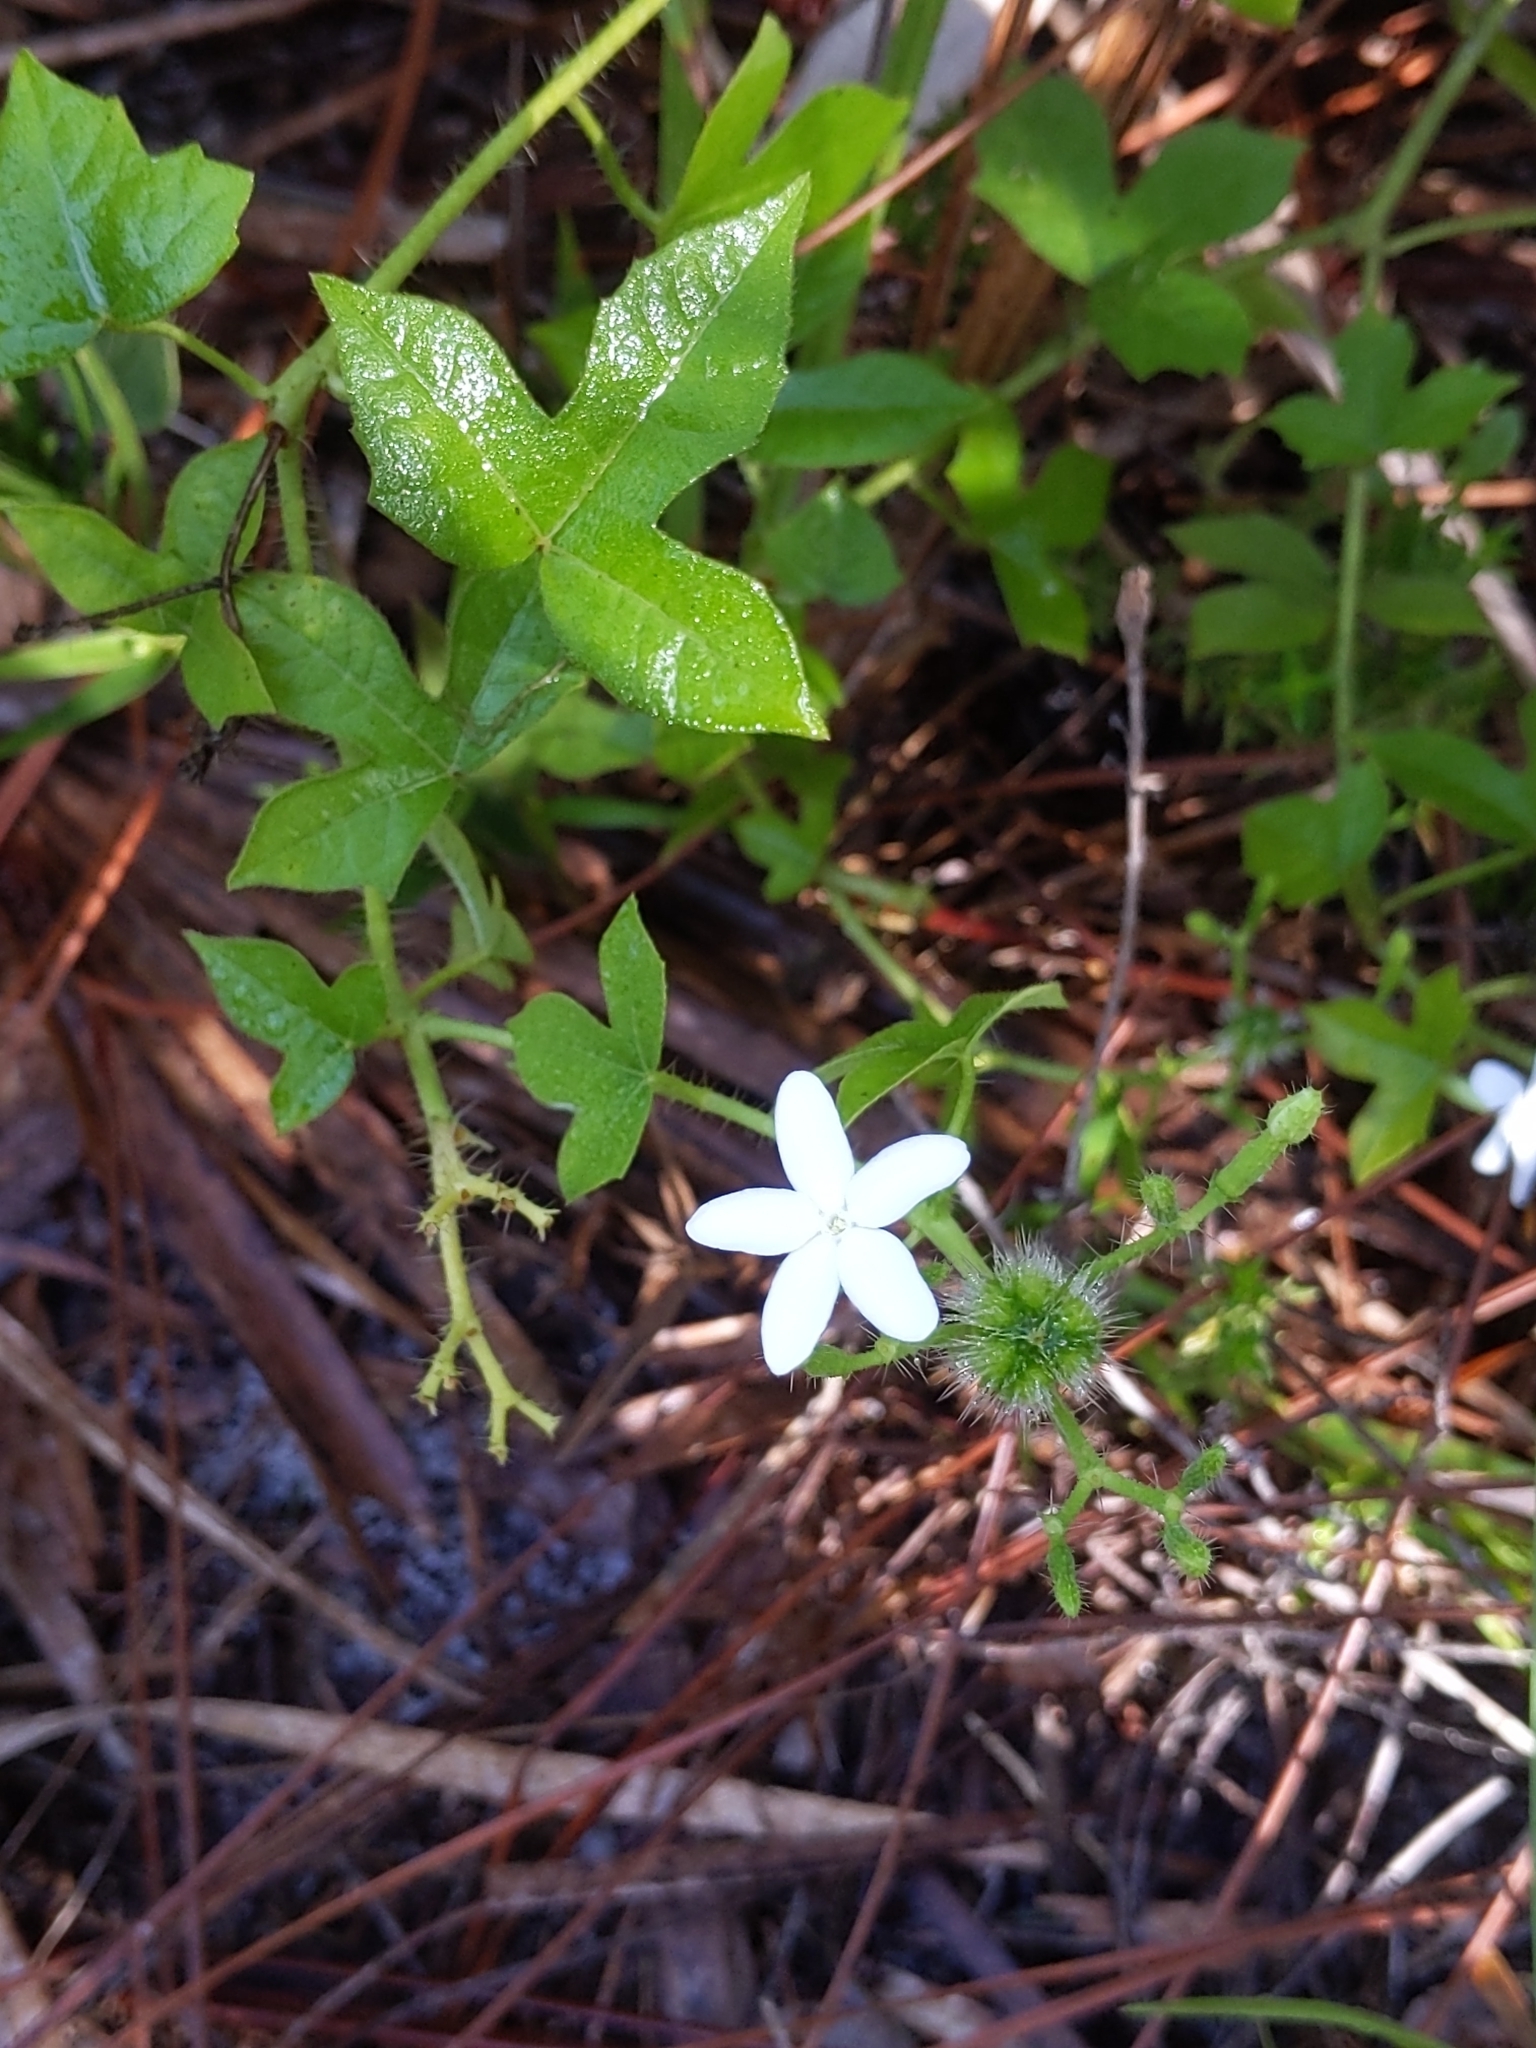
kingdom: Plantae
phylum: Tracheophyta
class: Magnoliopsida
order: Malpighiales
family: Euphorbiaceae
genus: Cnidoscolus
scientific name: Cnidoscolus stimulosus
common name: Bull-nettle
